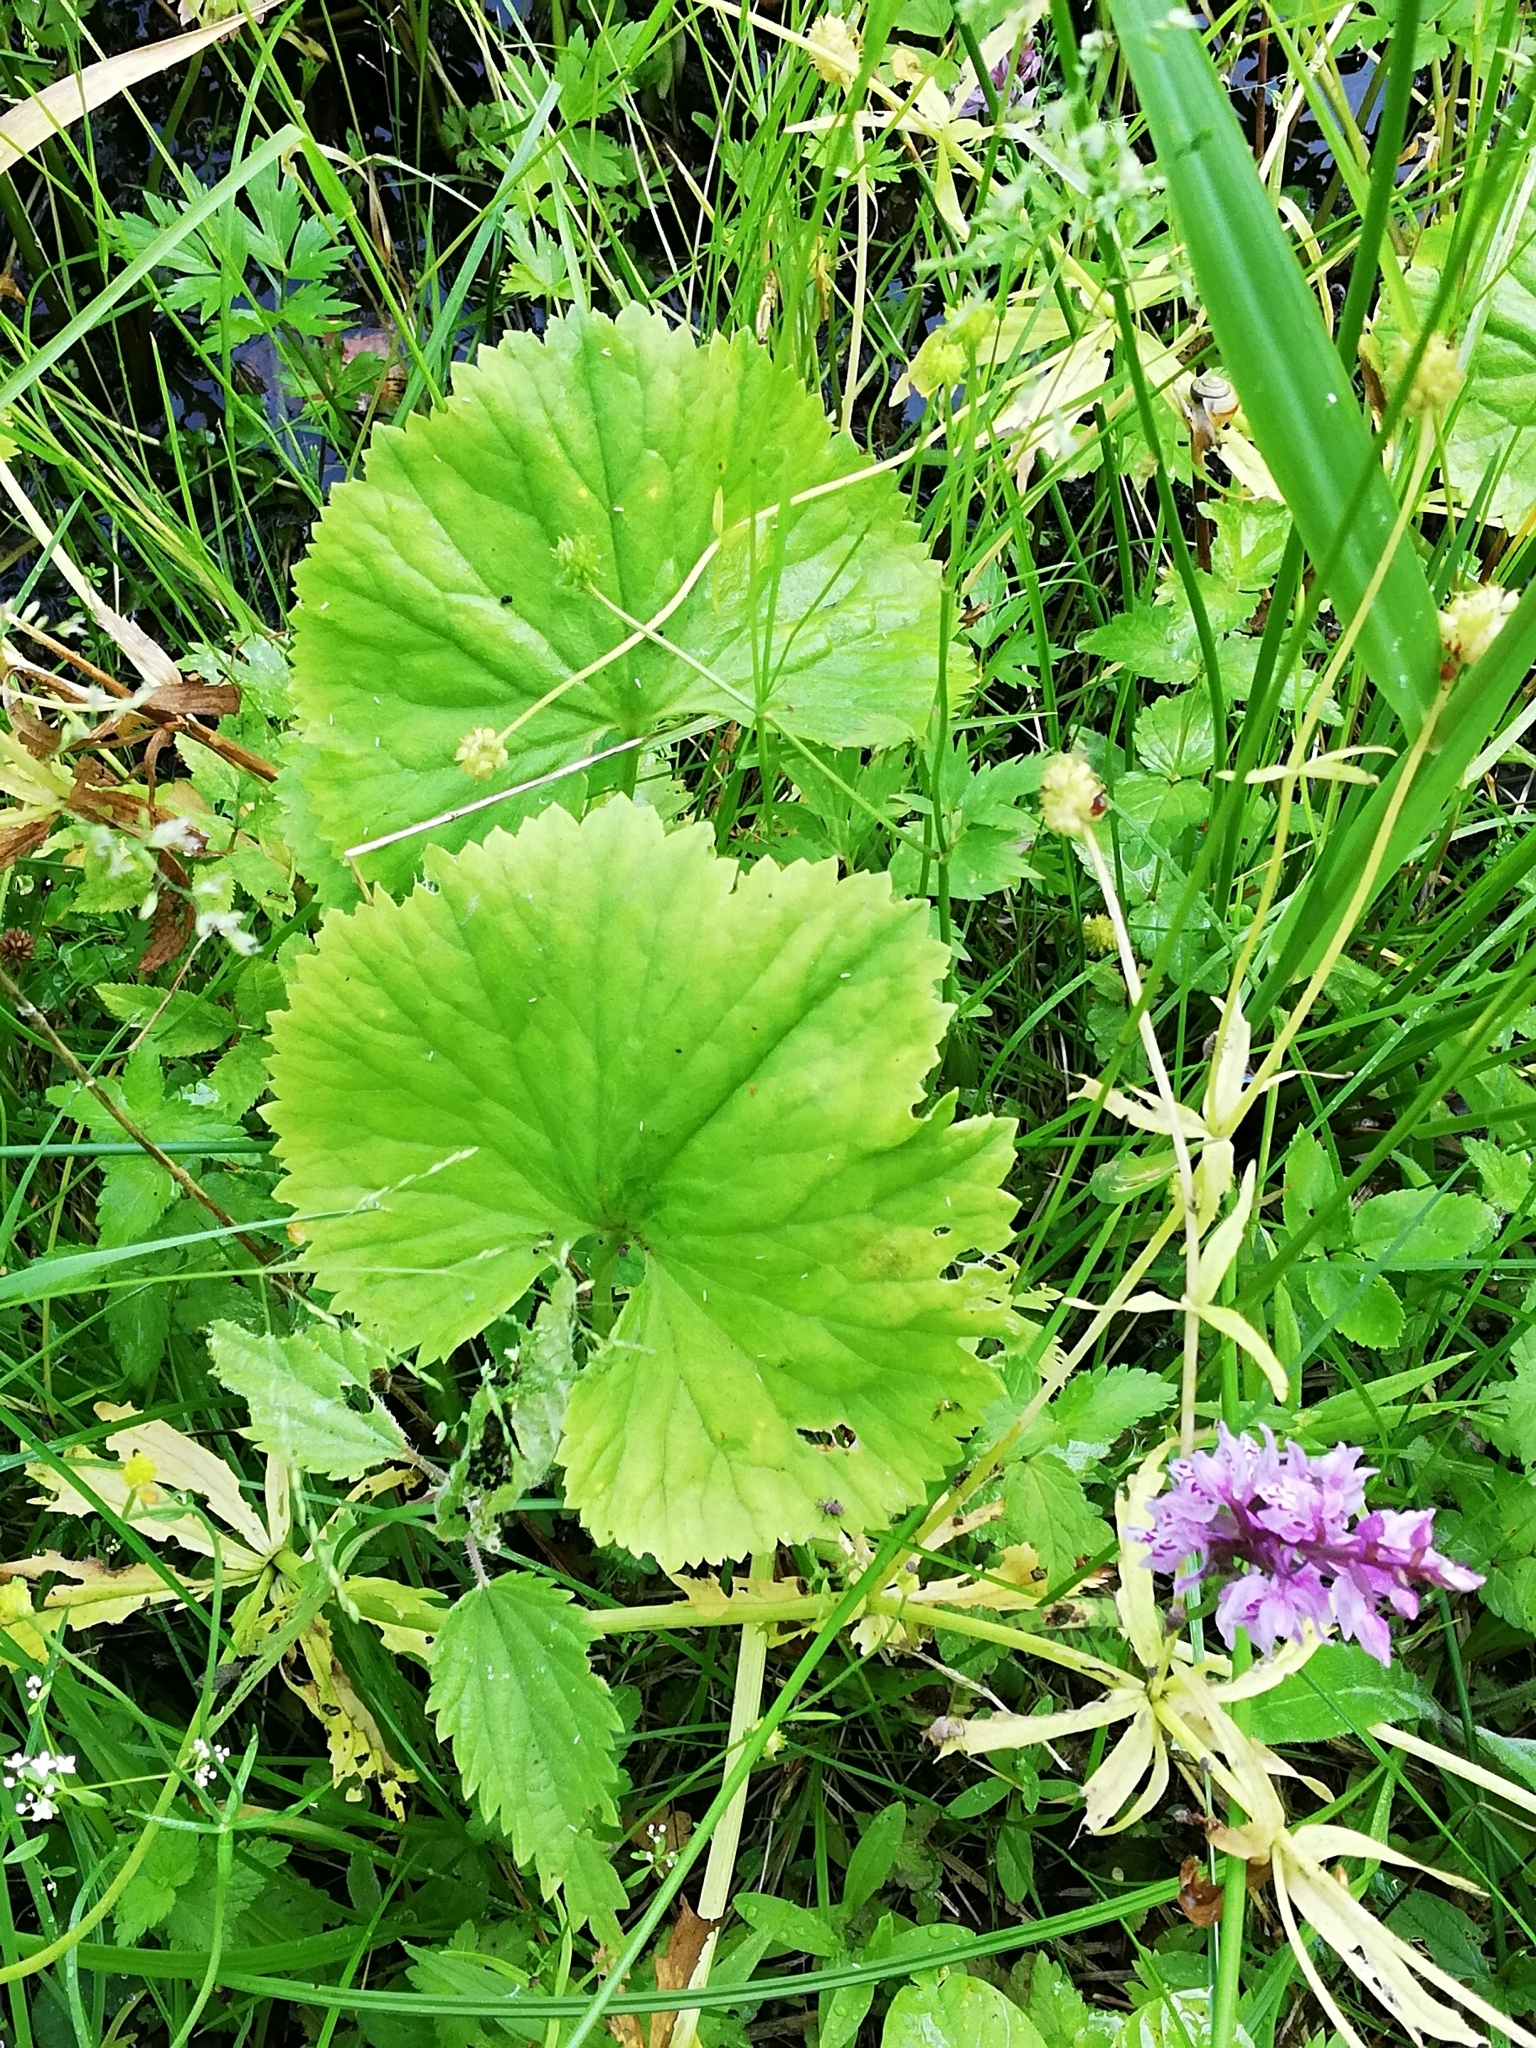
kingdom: Plantae
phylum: Tracheophyta
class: Magnoliopsida
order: Ranunculales
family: Ranunculaceae
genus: Ranunculus
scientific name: Ranunculus cassubicus
